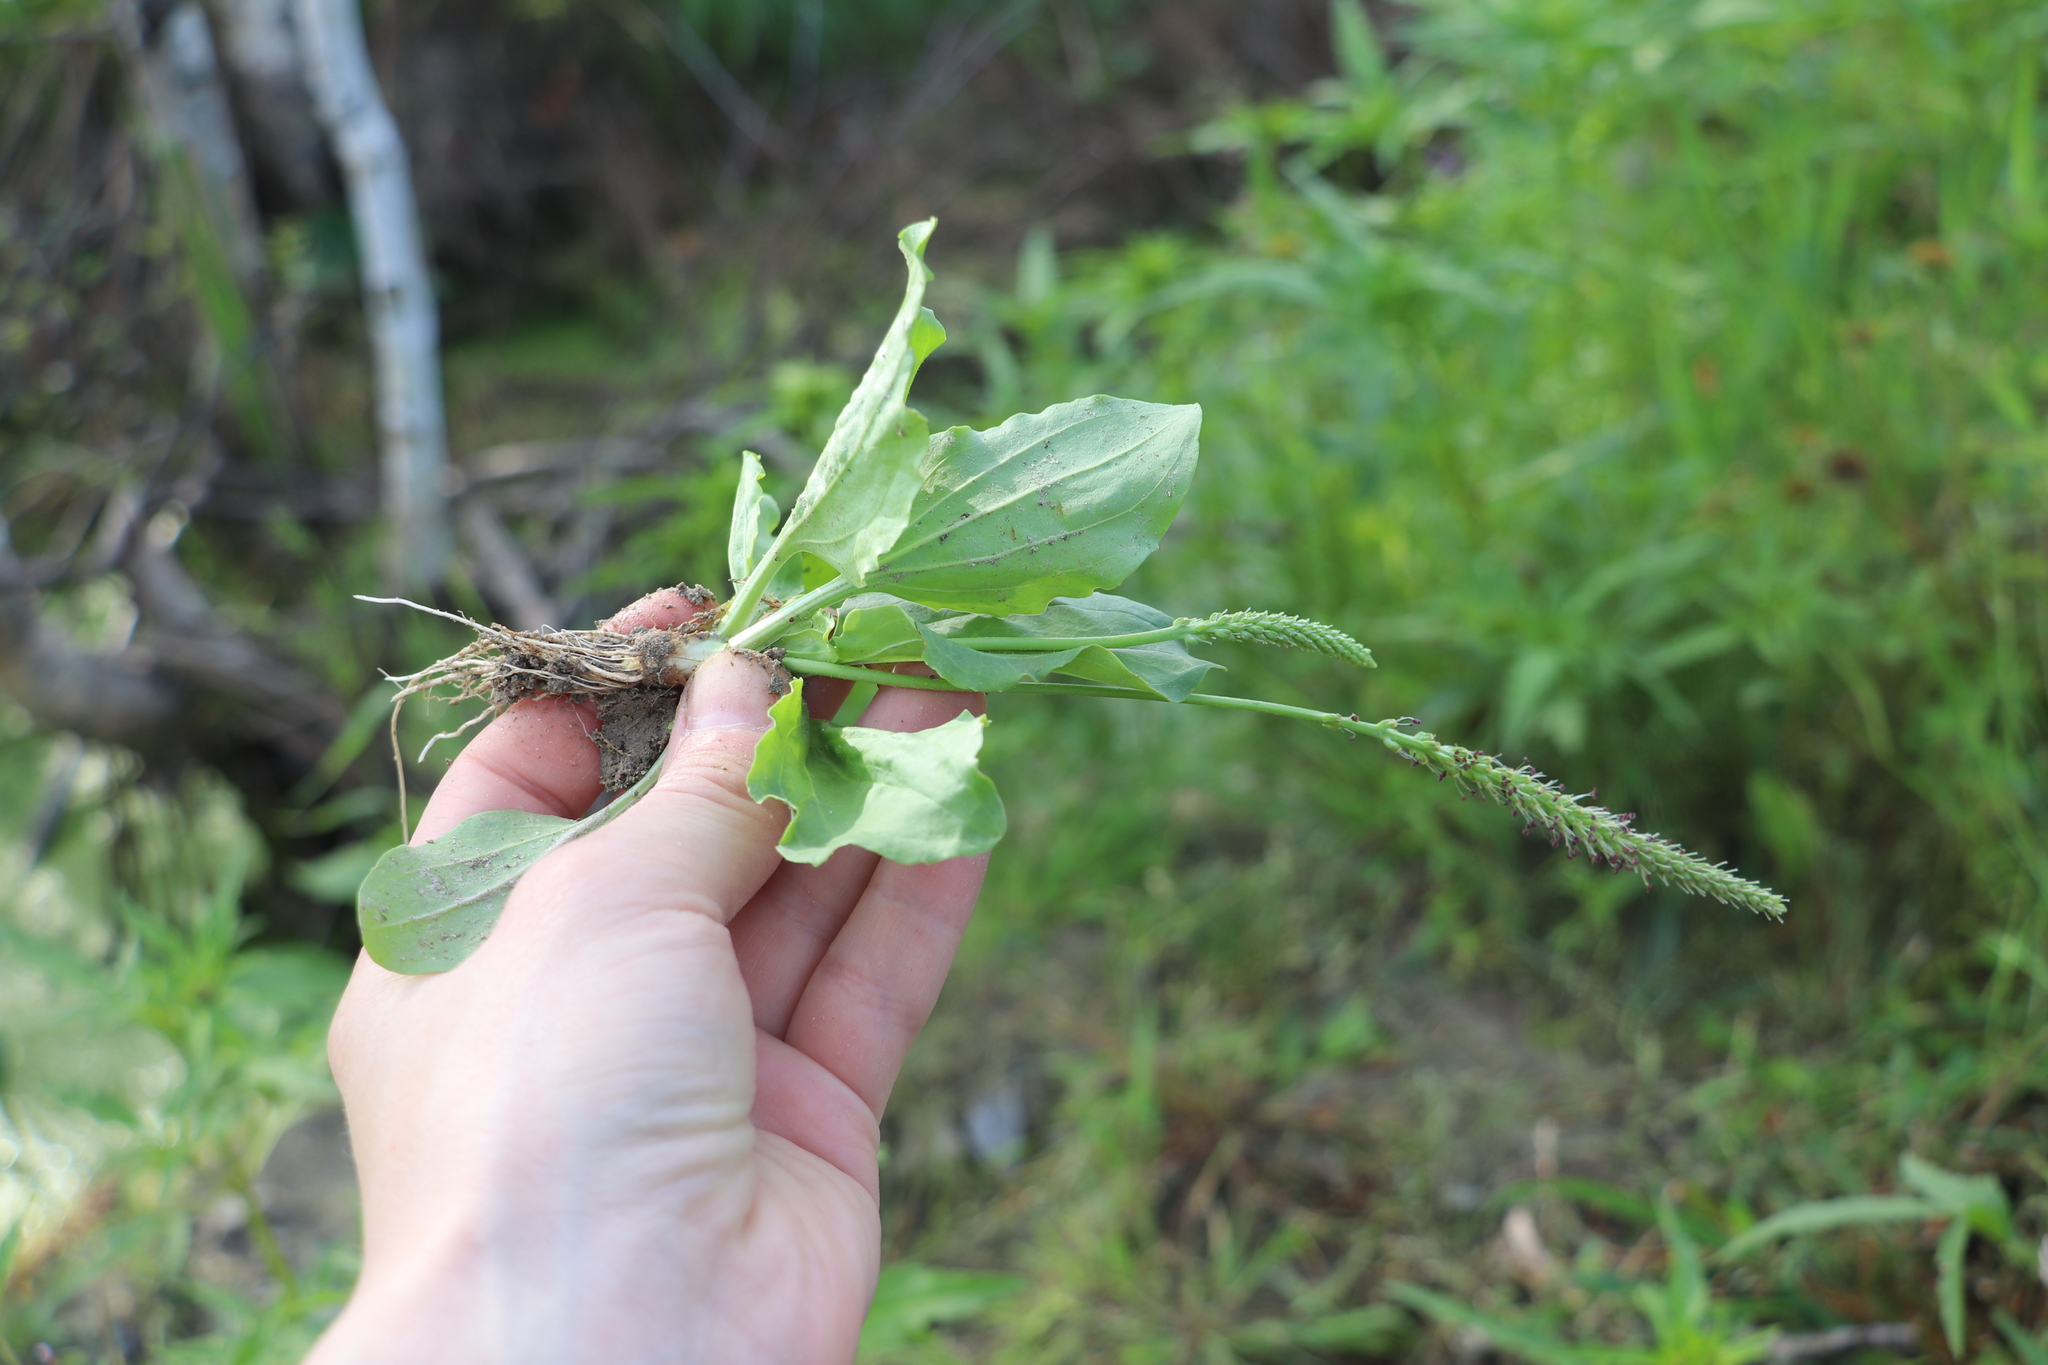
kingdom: Plantae
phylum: Tracheophyta
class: Magnoliopsida
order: Lamiales
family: Plantaginaceae
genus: Plantago
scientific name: Plantago major
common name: Common plantain
